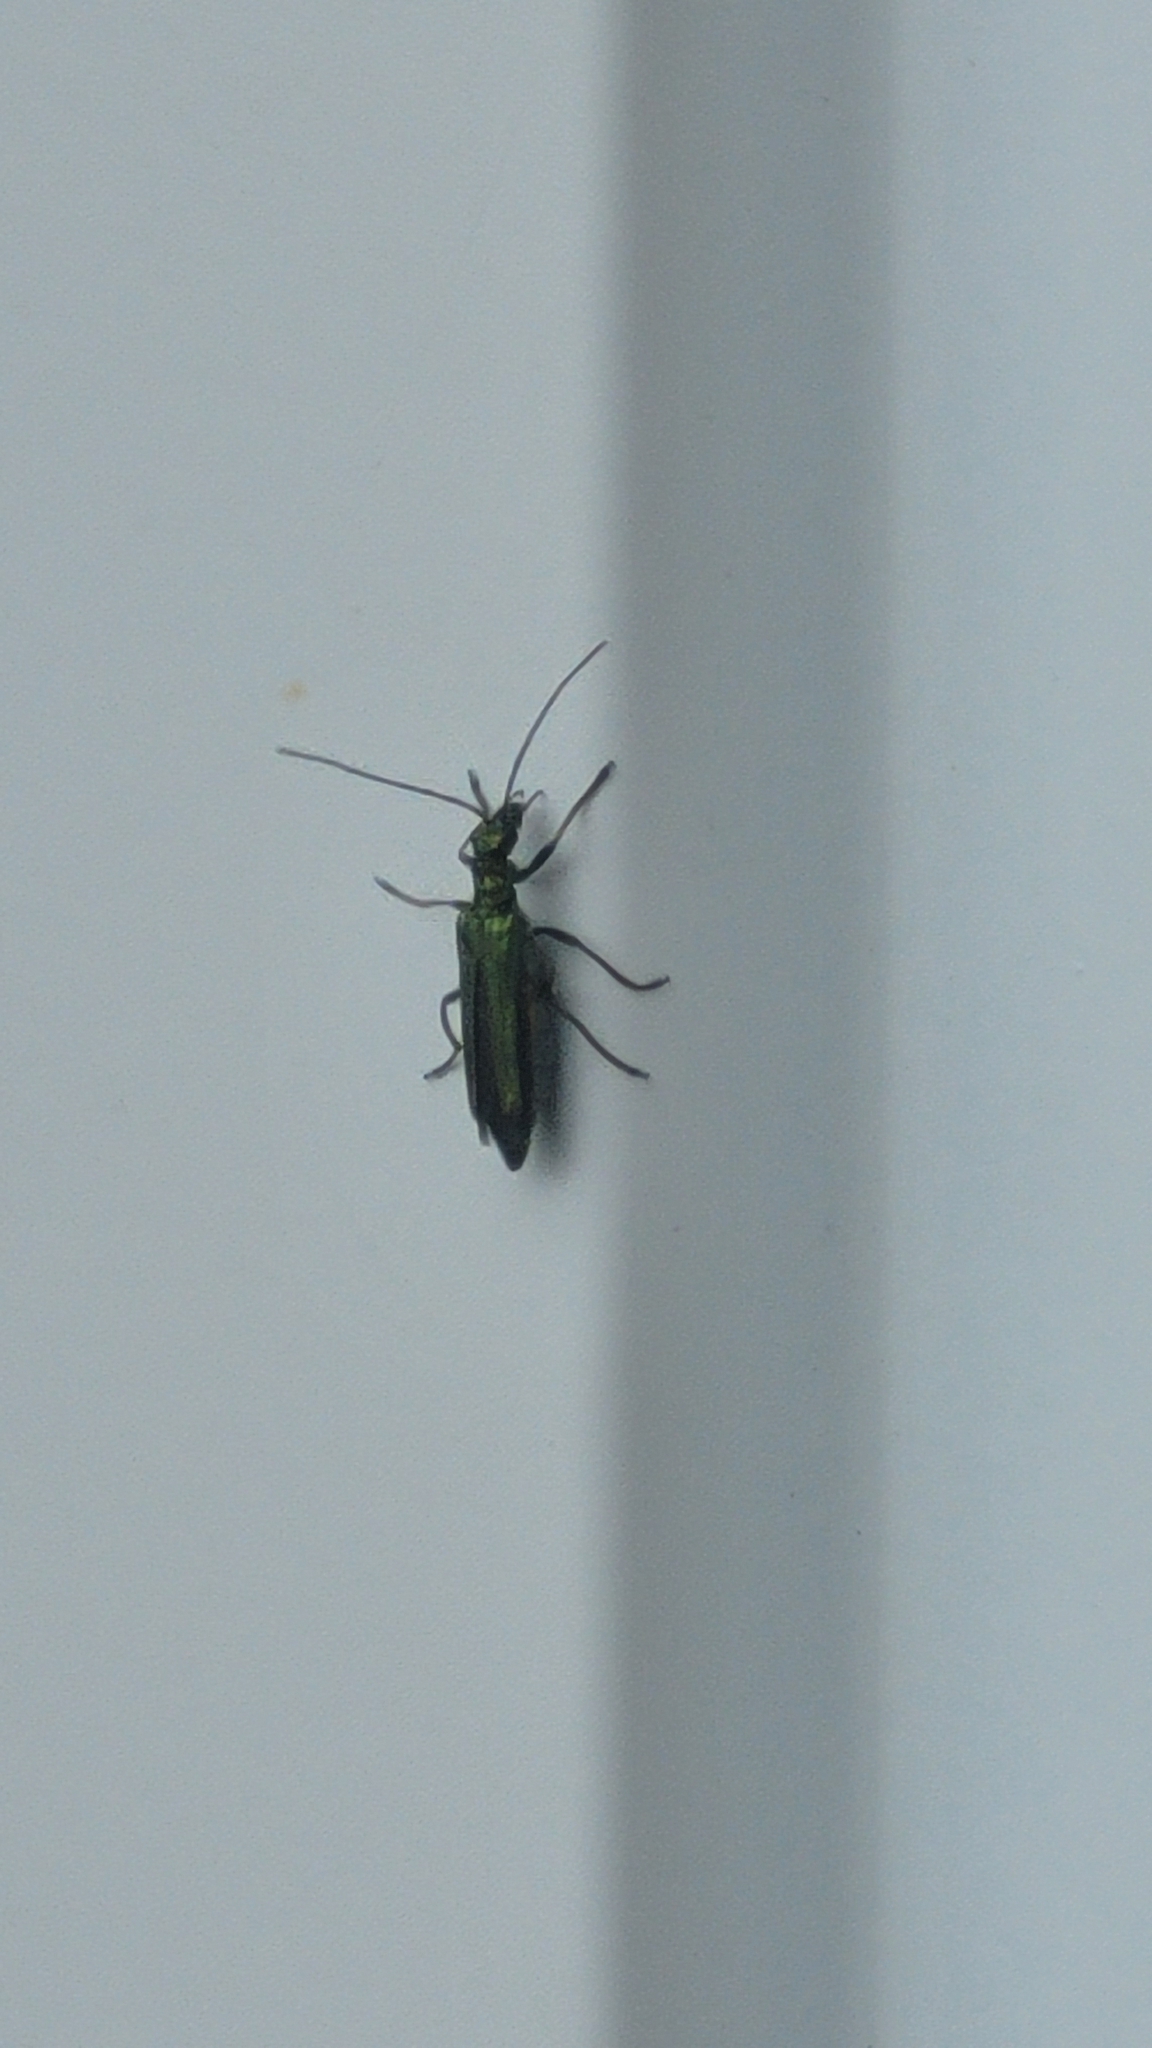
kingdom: Animalia
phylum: Arthropoda
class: Insecta
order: Coleoptera
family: Oedemeridae
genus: Oedemera
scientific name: Oedemera nobilis
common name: Swollen-thighed beetle
